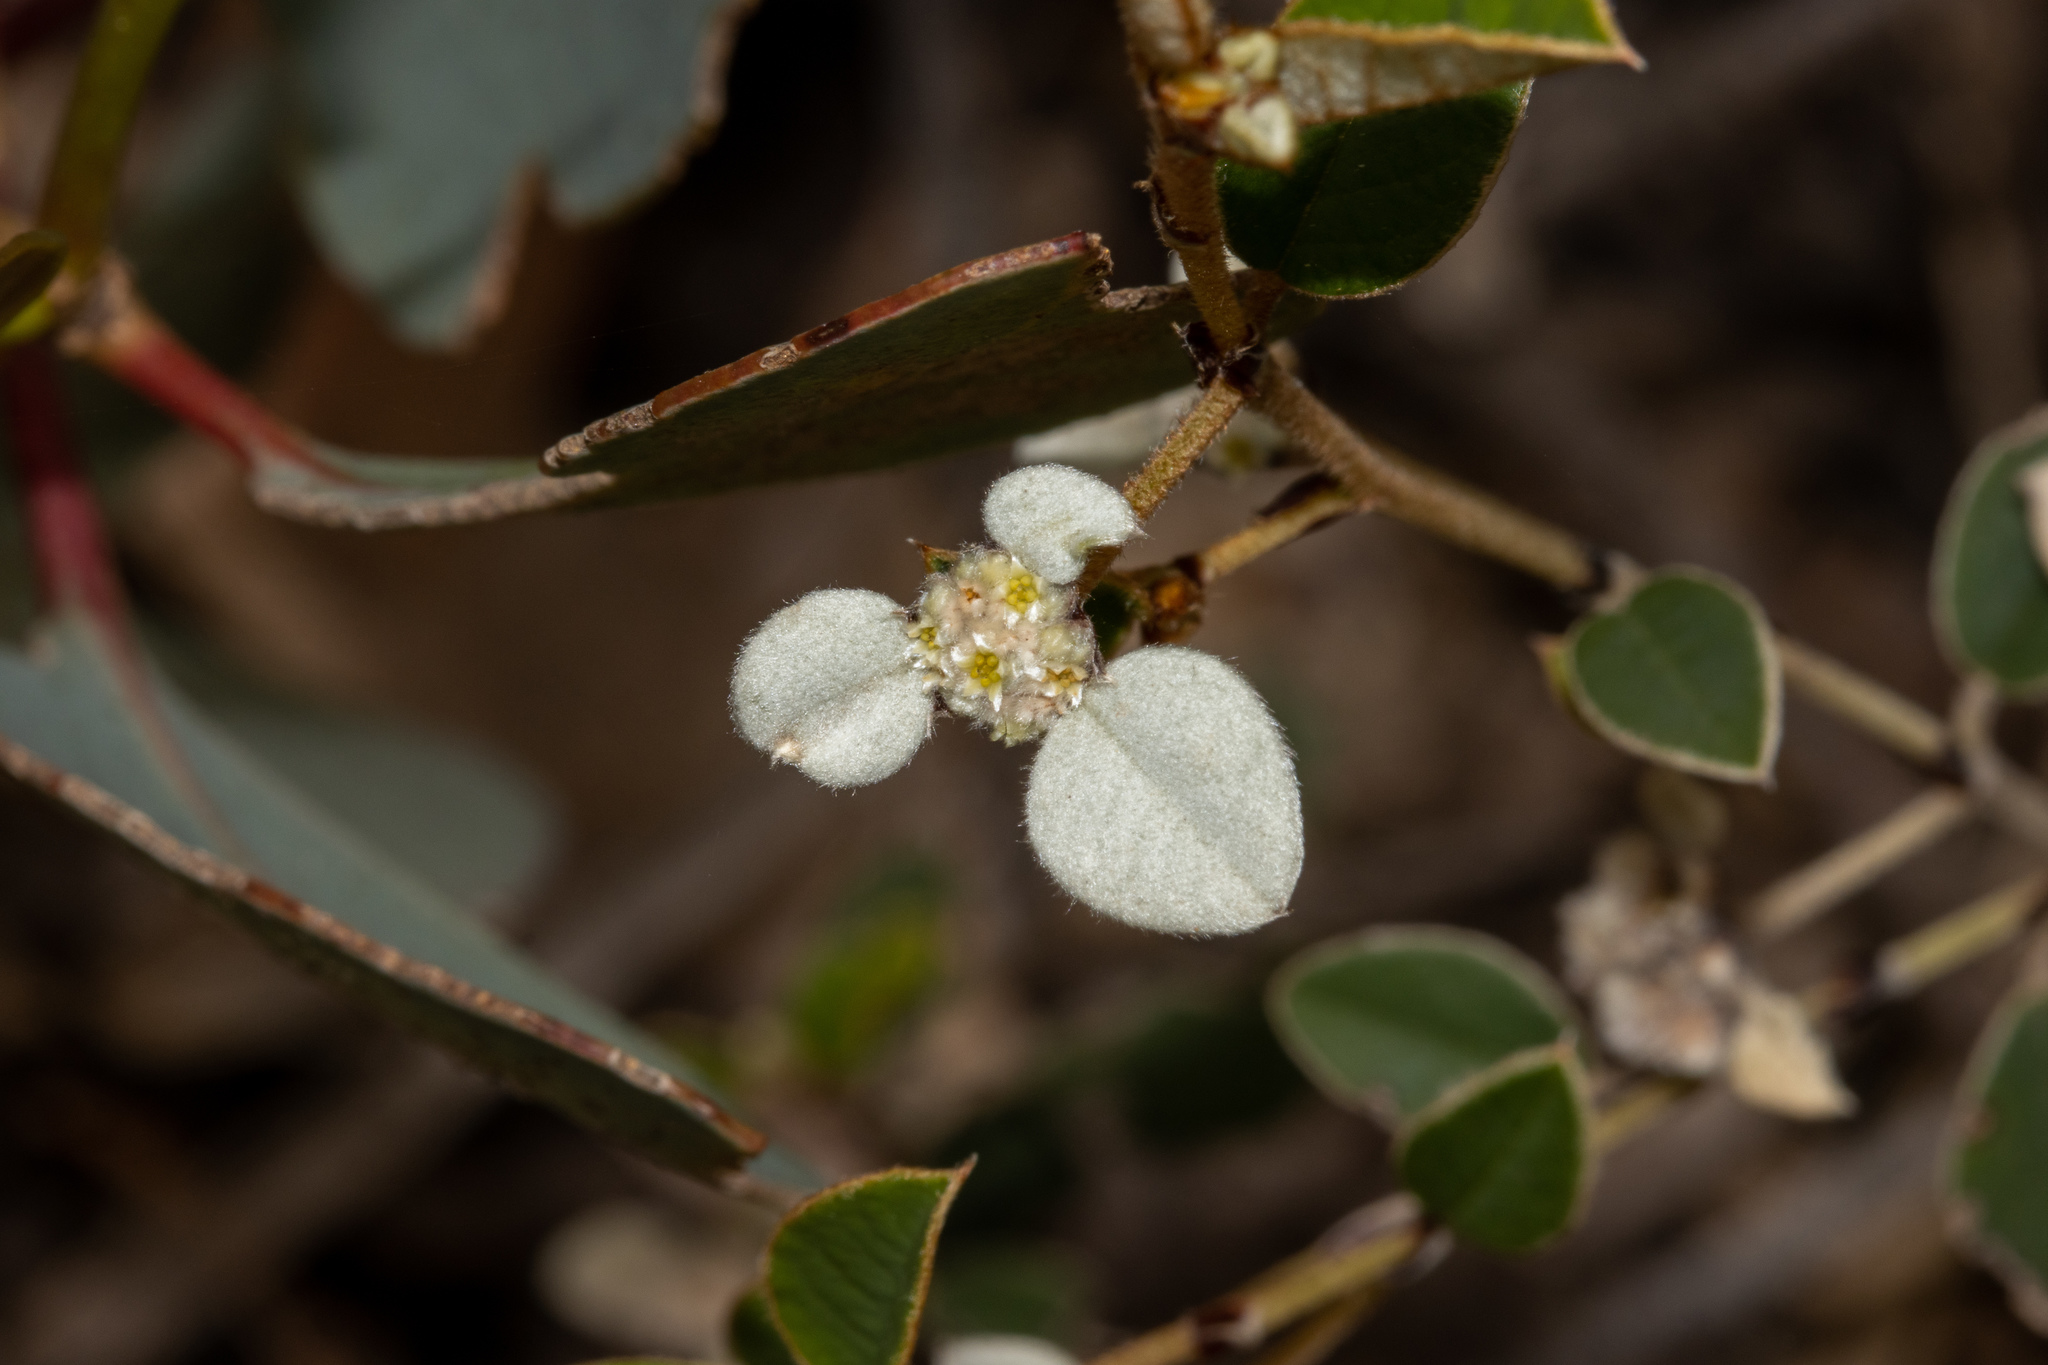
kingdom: Plantae
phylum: Tracheophyta
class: Magnoliopsida
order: Rosales
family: Rhamnaceae
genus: Spyridium
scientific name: Spyridium thymifolium
